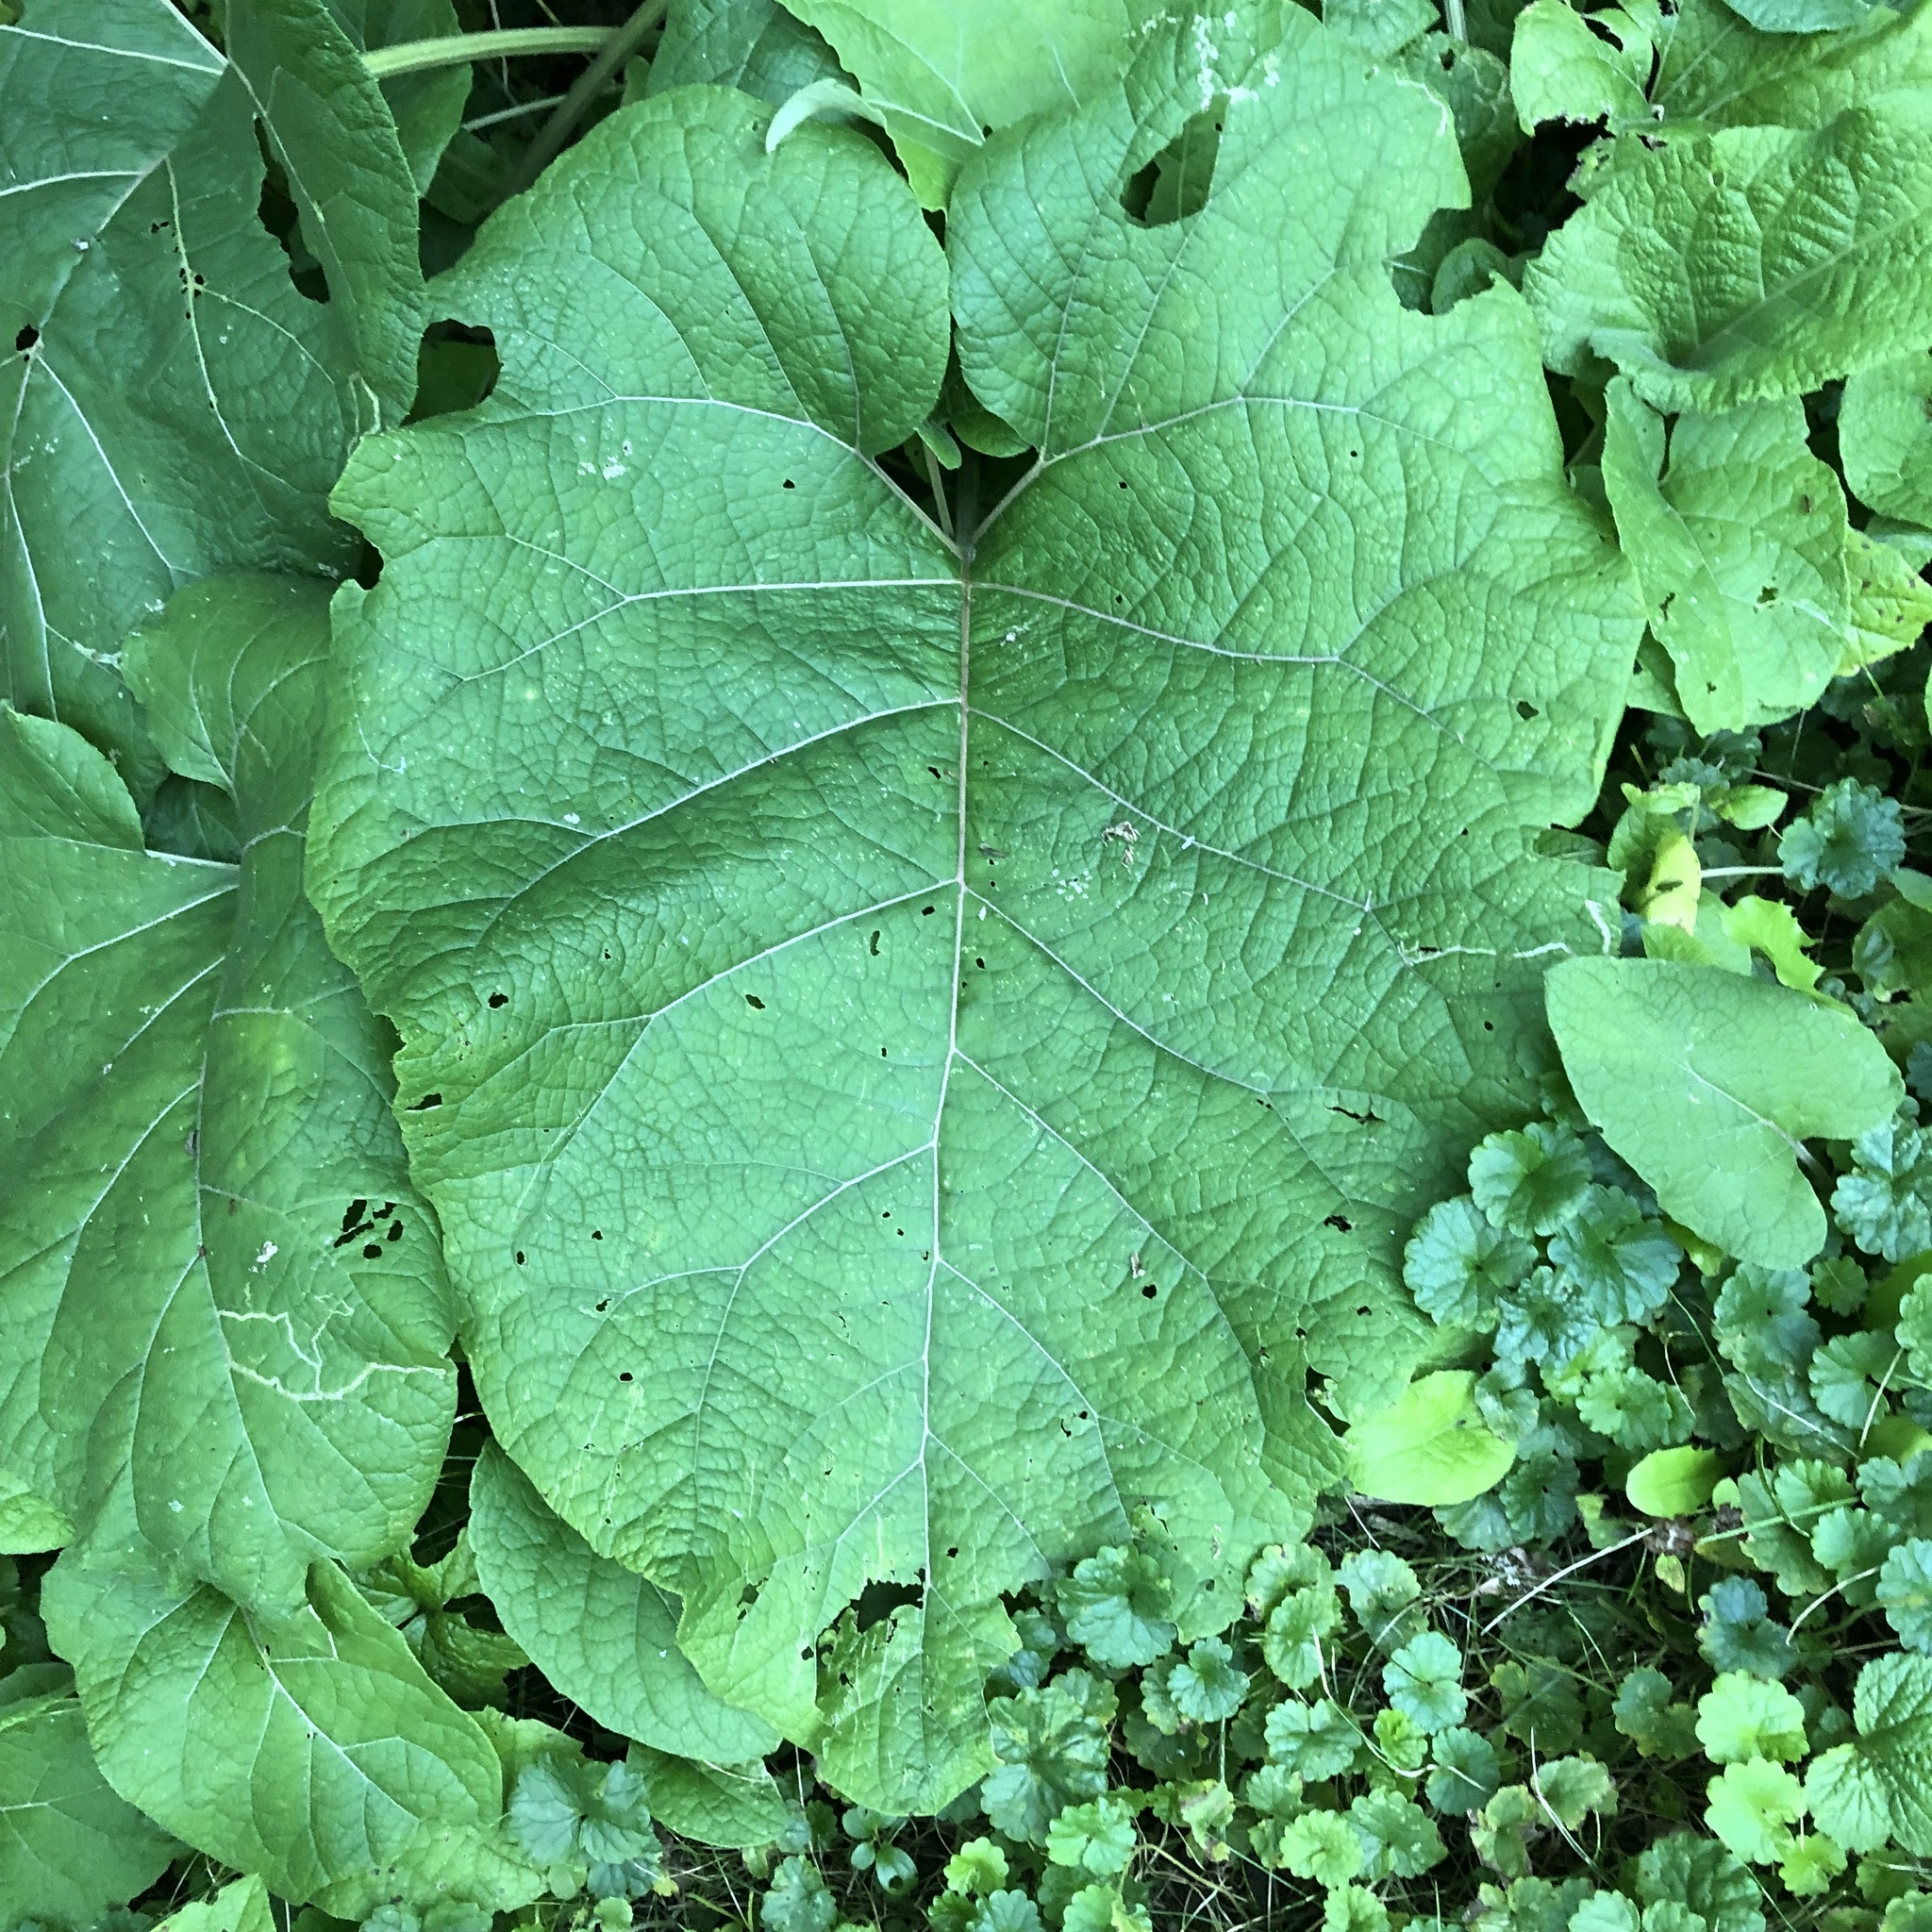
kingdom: Plantae
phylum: Tracheophyta
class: Magnoliopsida
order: Asterales
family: Asteraceae
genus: Arctium
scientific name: Arctium
